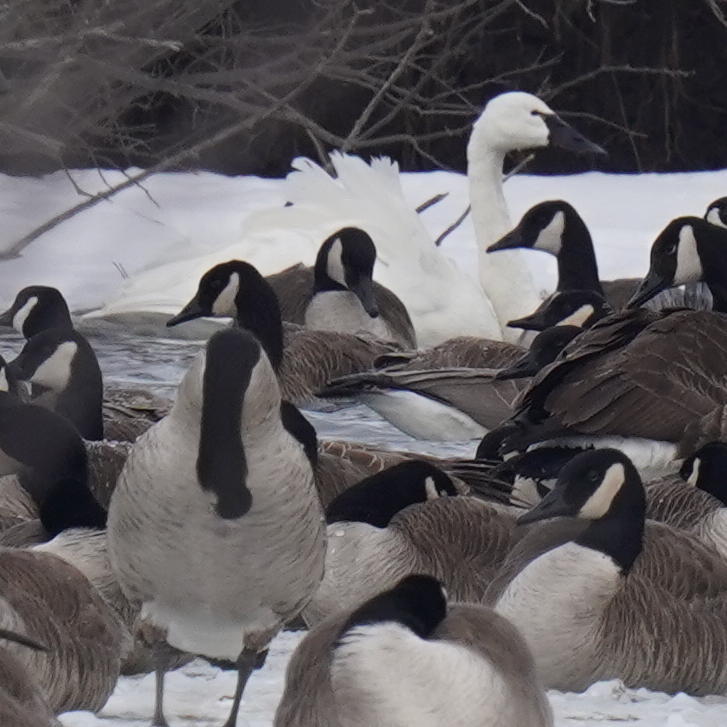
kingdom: Animalia
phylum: Chordata
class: Aves
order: Anseriformes
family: Anatidae
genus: Cygnus
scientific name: Cygnus columbianus
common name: Tundra swan
